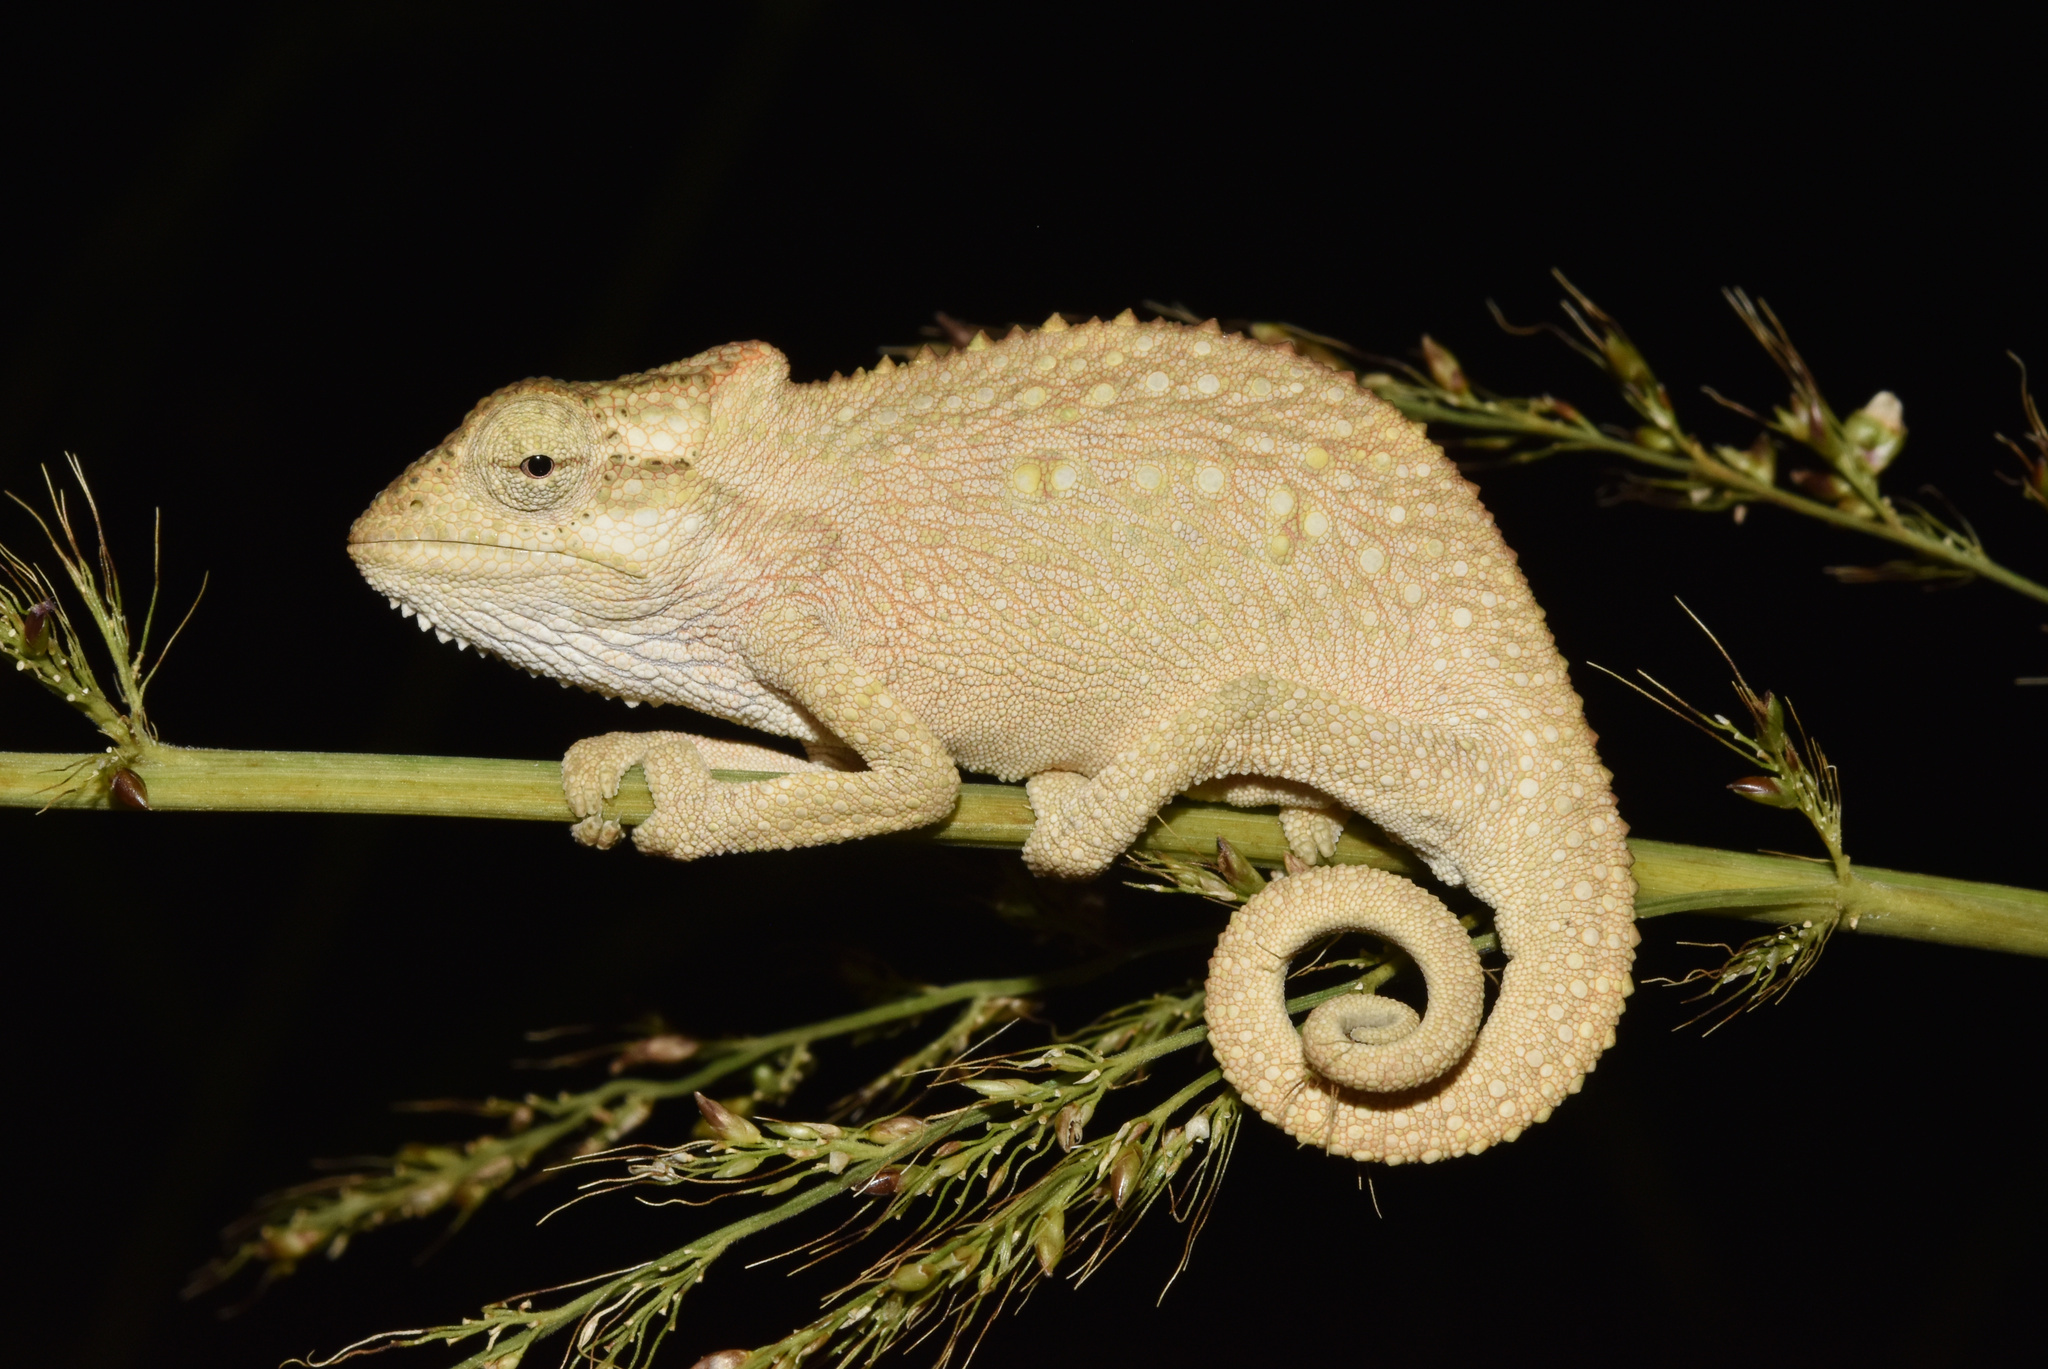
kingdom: Animalia
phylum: Chordata
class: Squamata
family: Chamaeleonidae
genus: Bradypodion
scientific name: Bradypodion melanocephalum
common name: Black-headed dwarf chameleon
